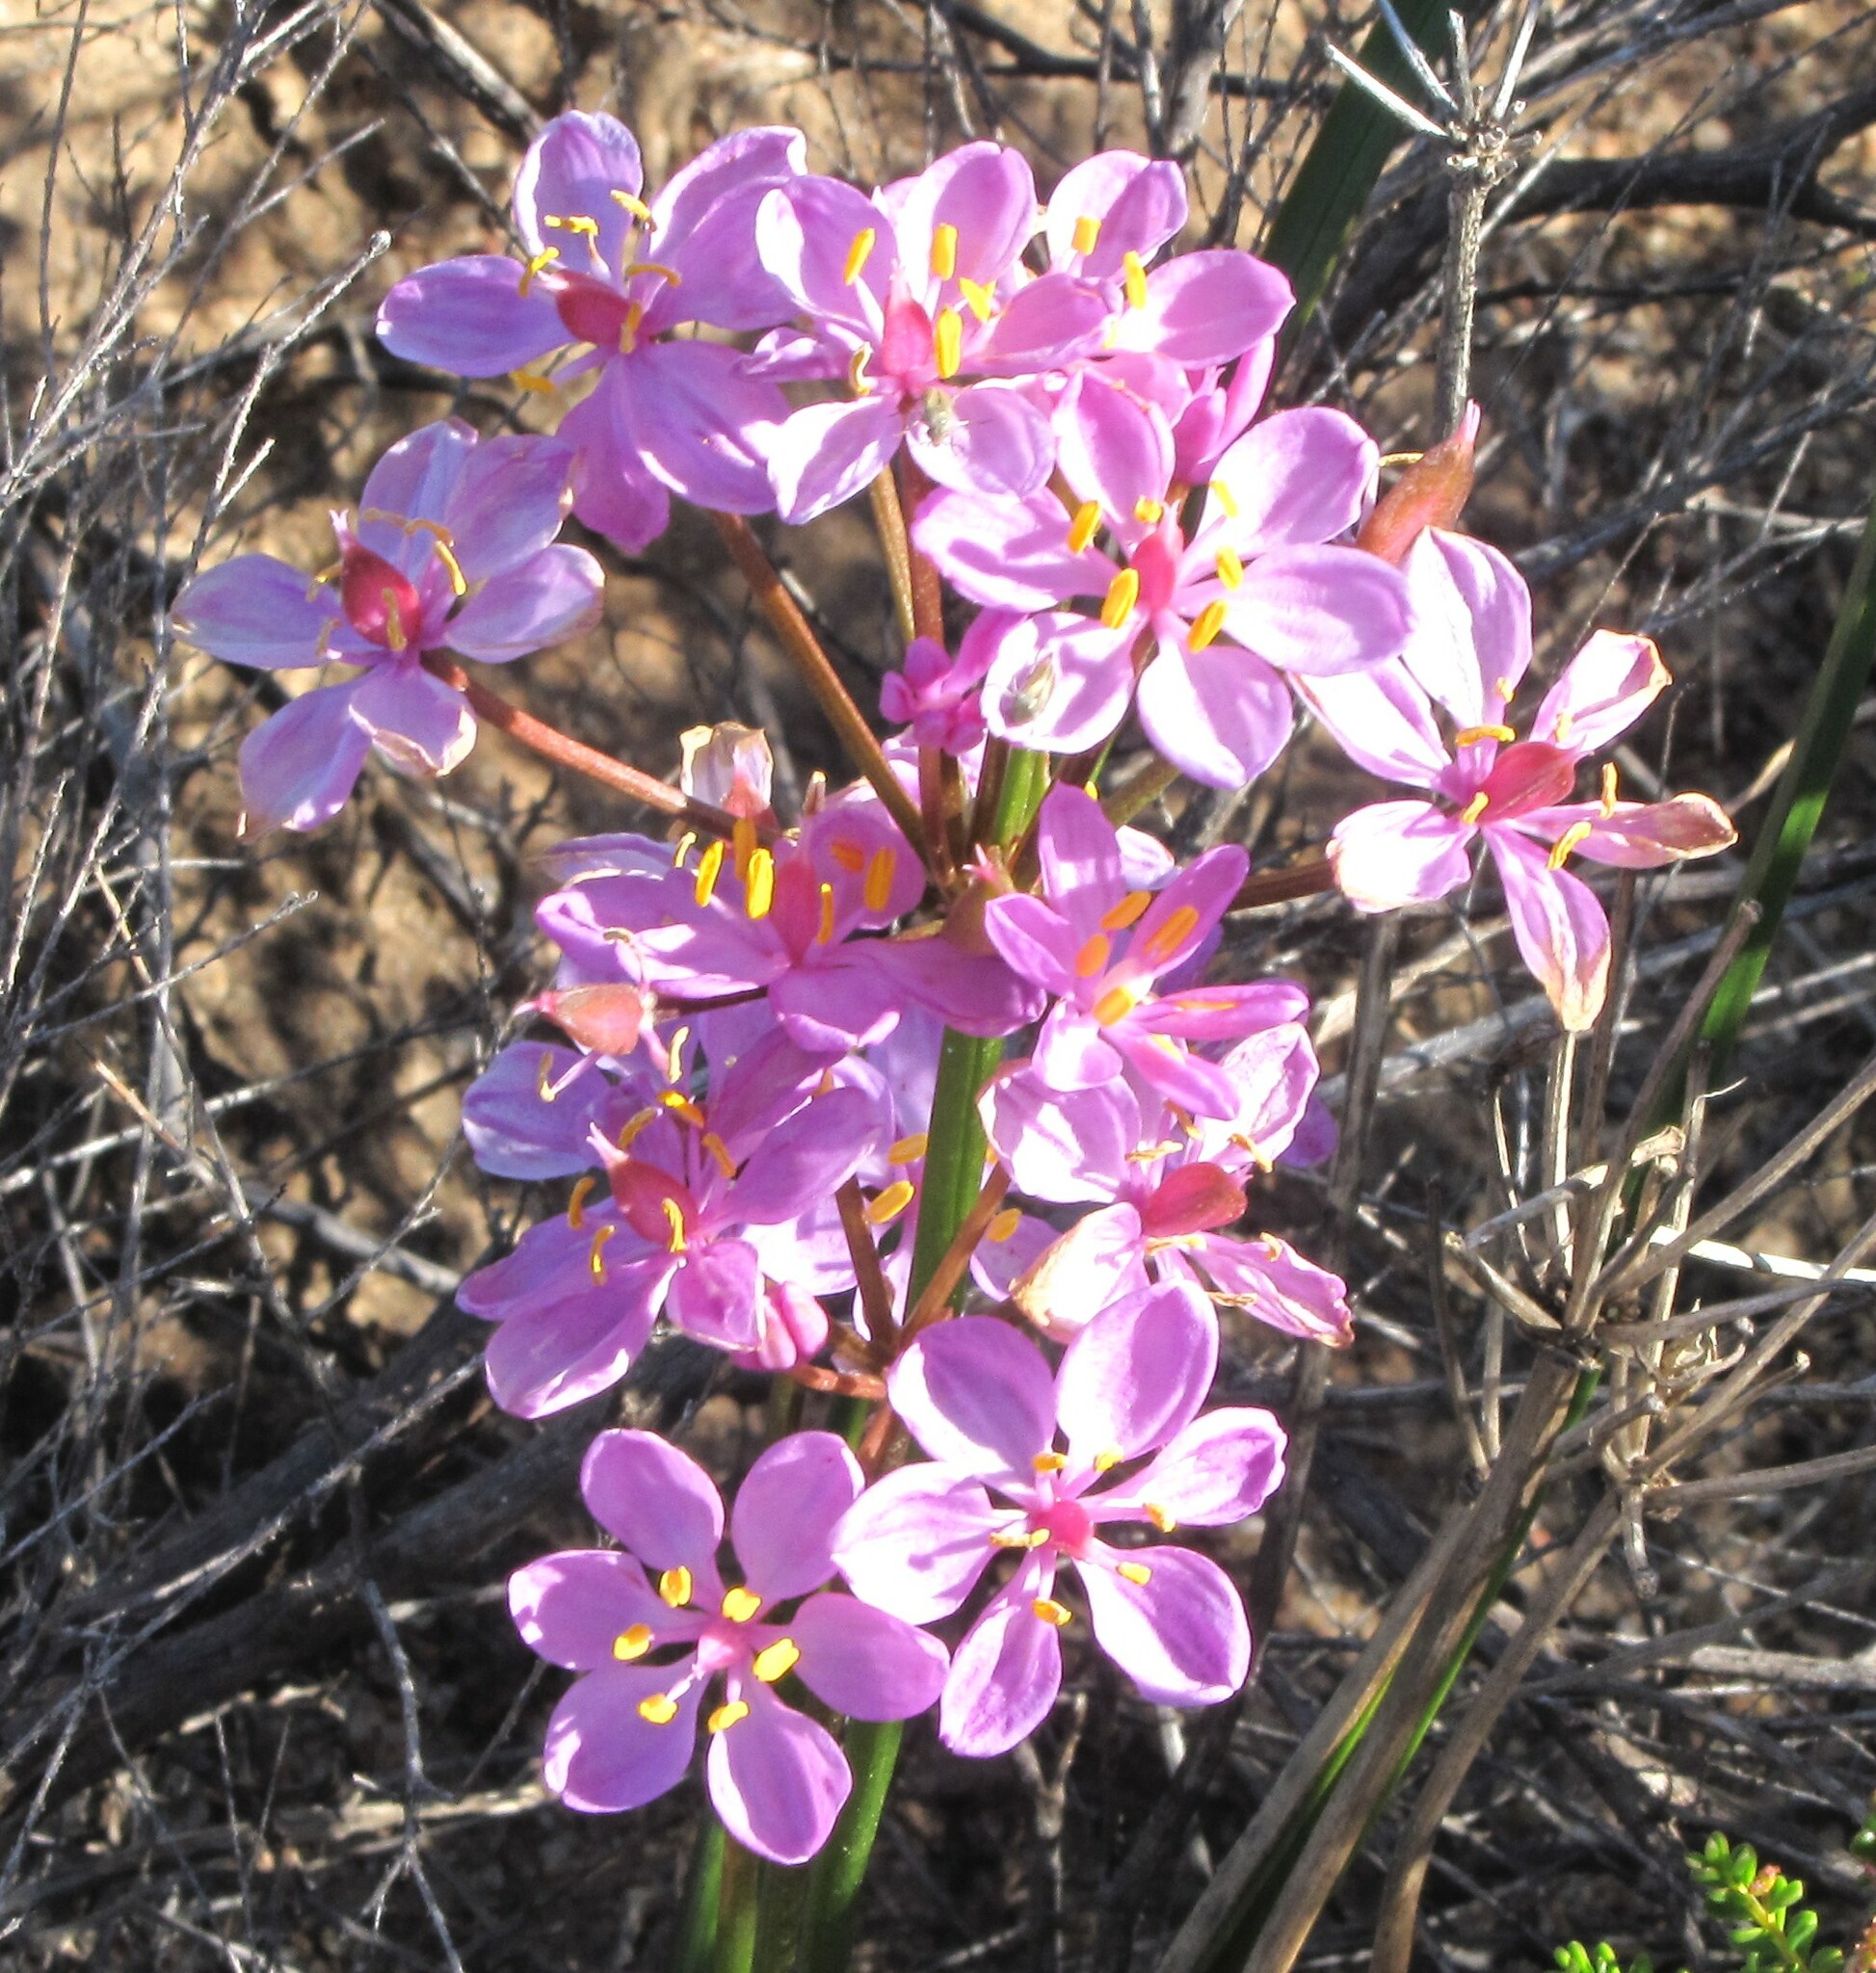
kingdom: Plantae
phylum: Tracheophyta
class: Liliopsida
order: Liliales
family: Colchicaceae
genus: Burchardia
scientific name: Burchardia rosea
